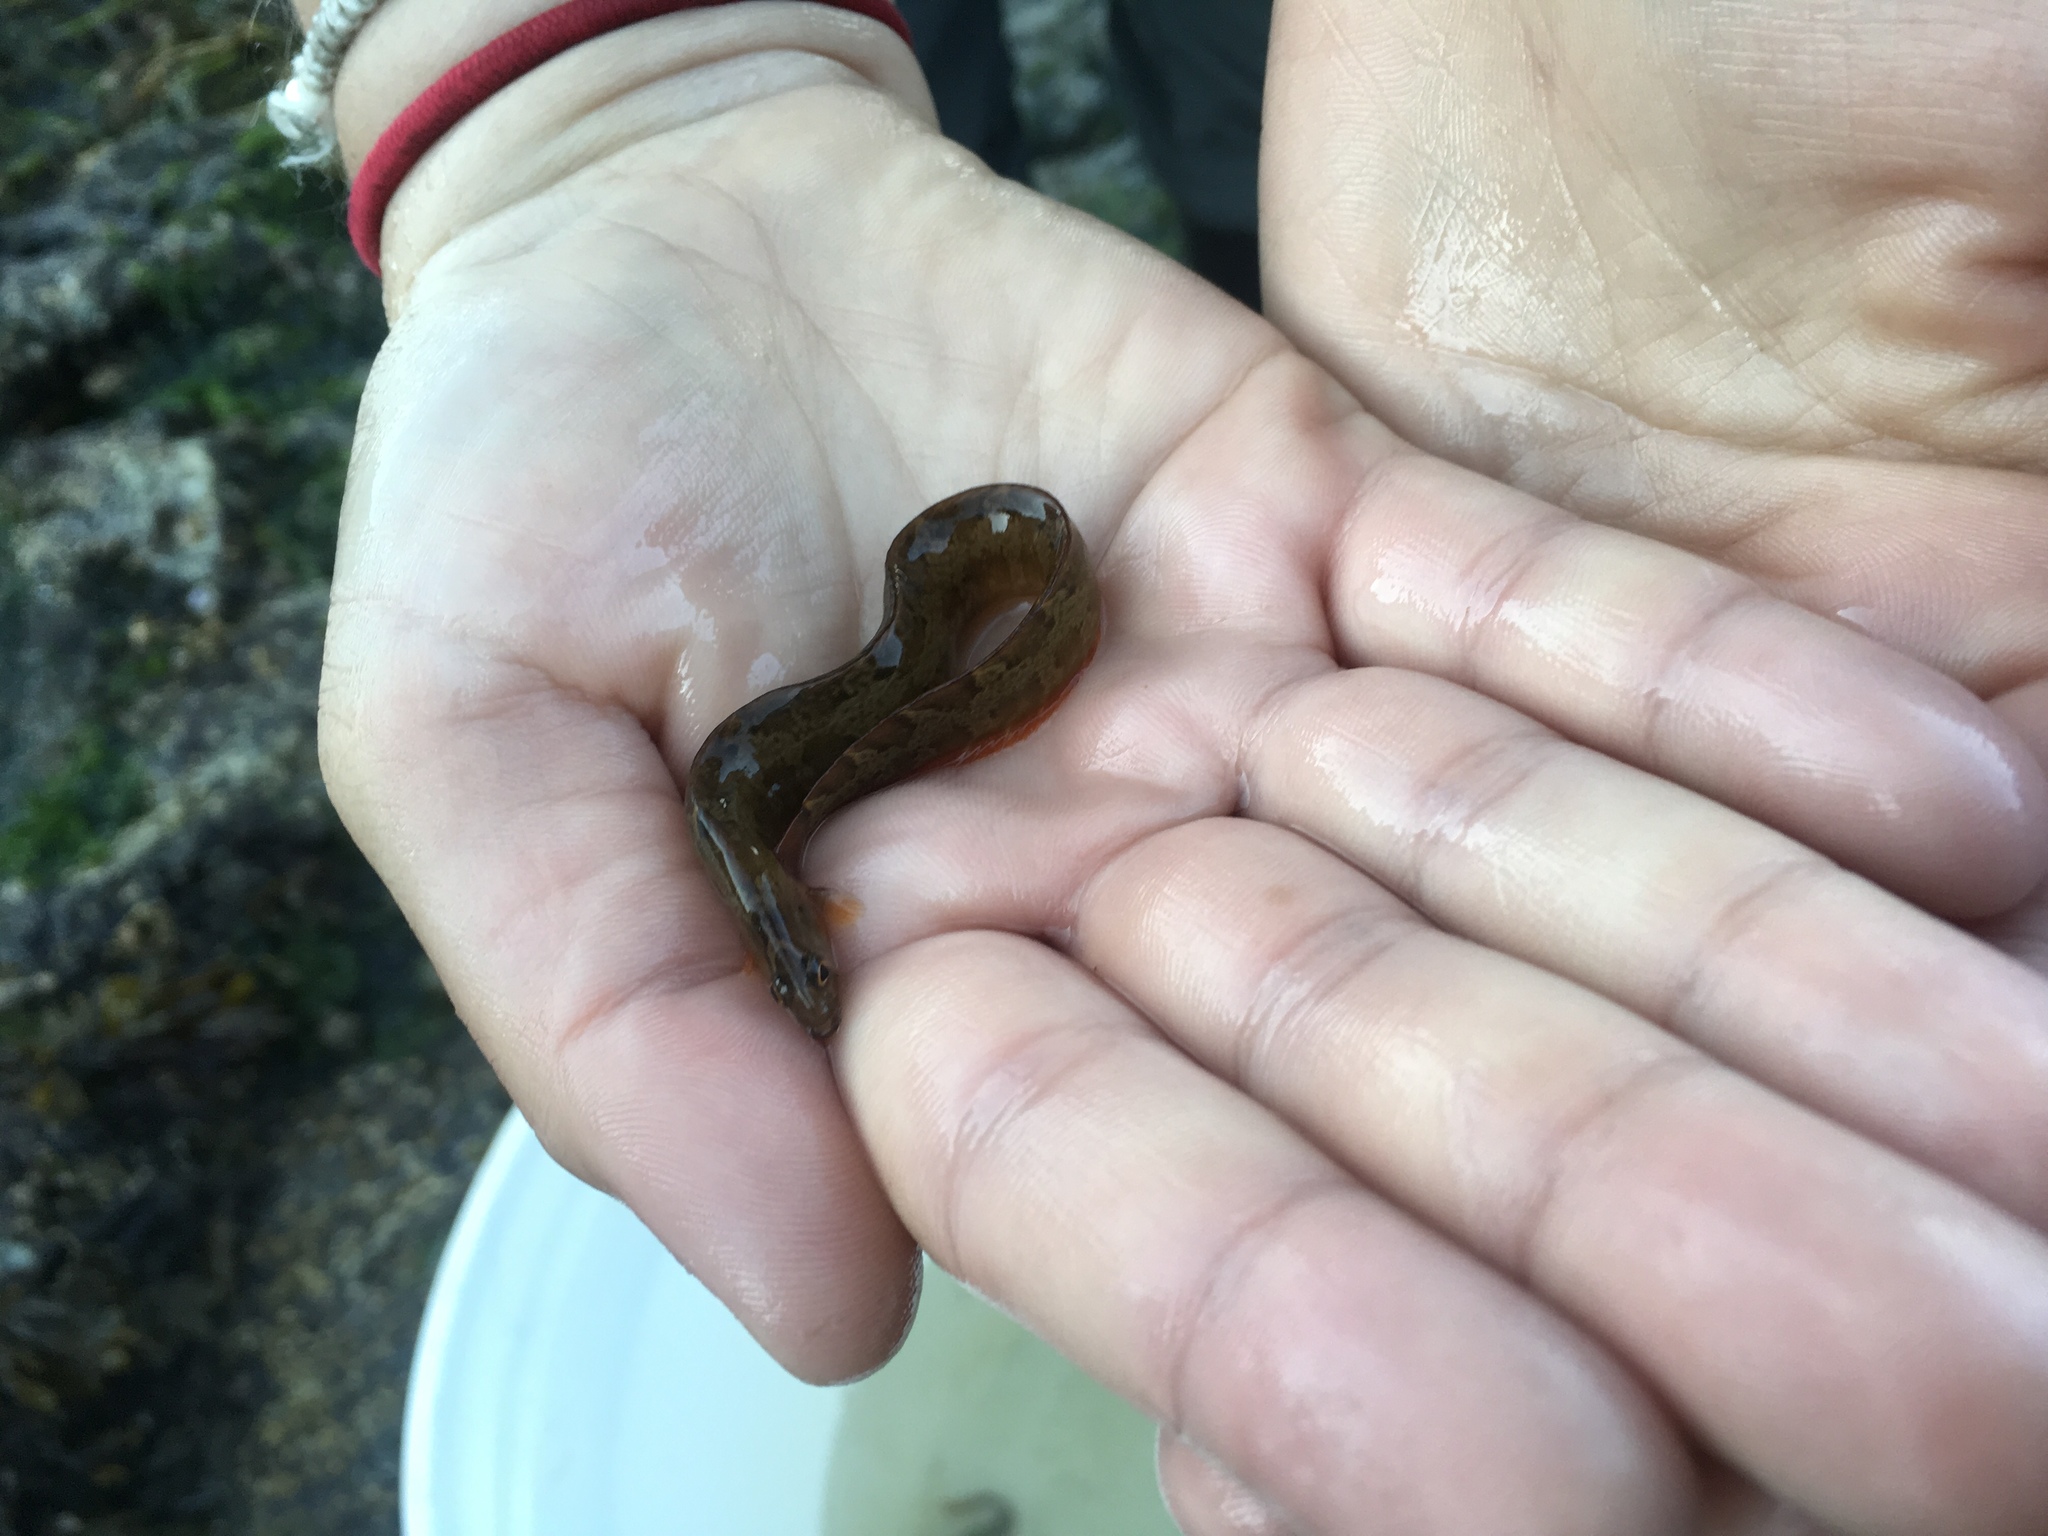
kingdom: Animalia
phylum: Chordata
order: Perciformes
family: Pholidae
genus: Pholis
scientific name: Pholis ornata
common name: Saddleback gunnel
